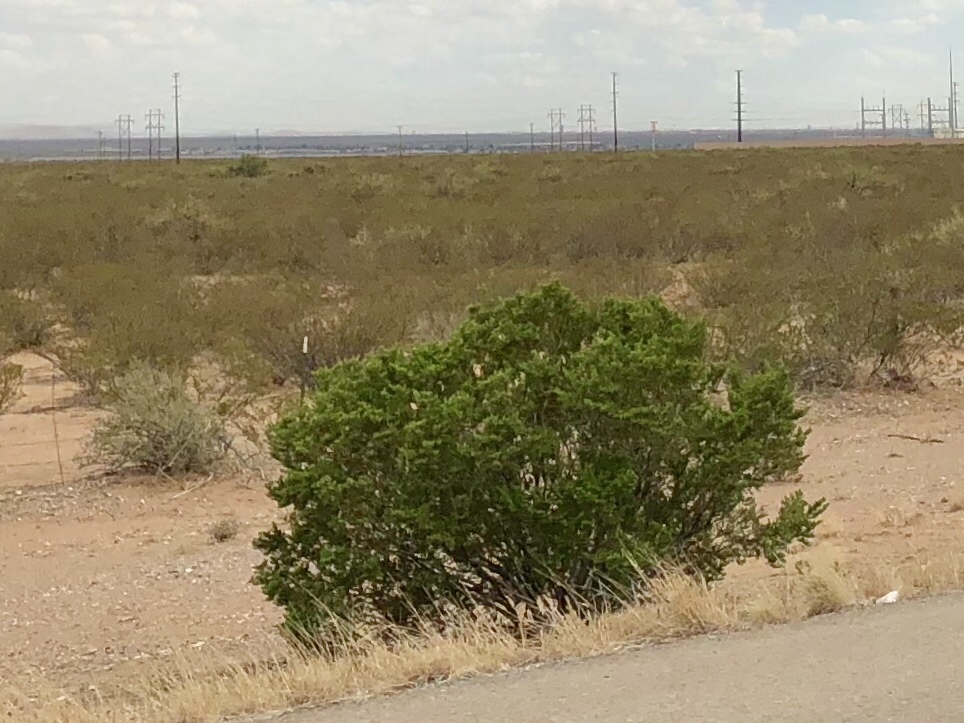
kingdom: Plantae
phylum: Tracheophyta
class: Magnoliopsida
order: Zygophyllales
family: Zygophyllaceae
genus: Larrea
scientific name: Larrea tridentata
